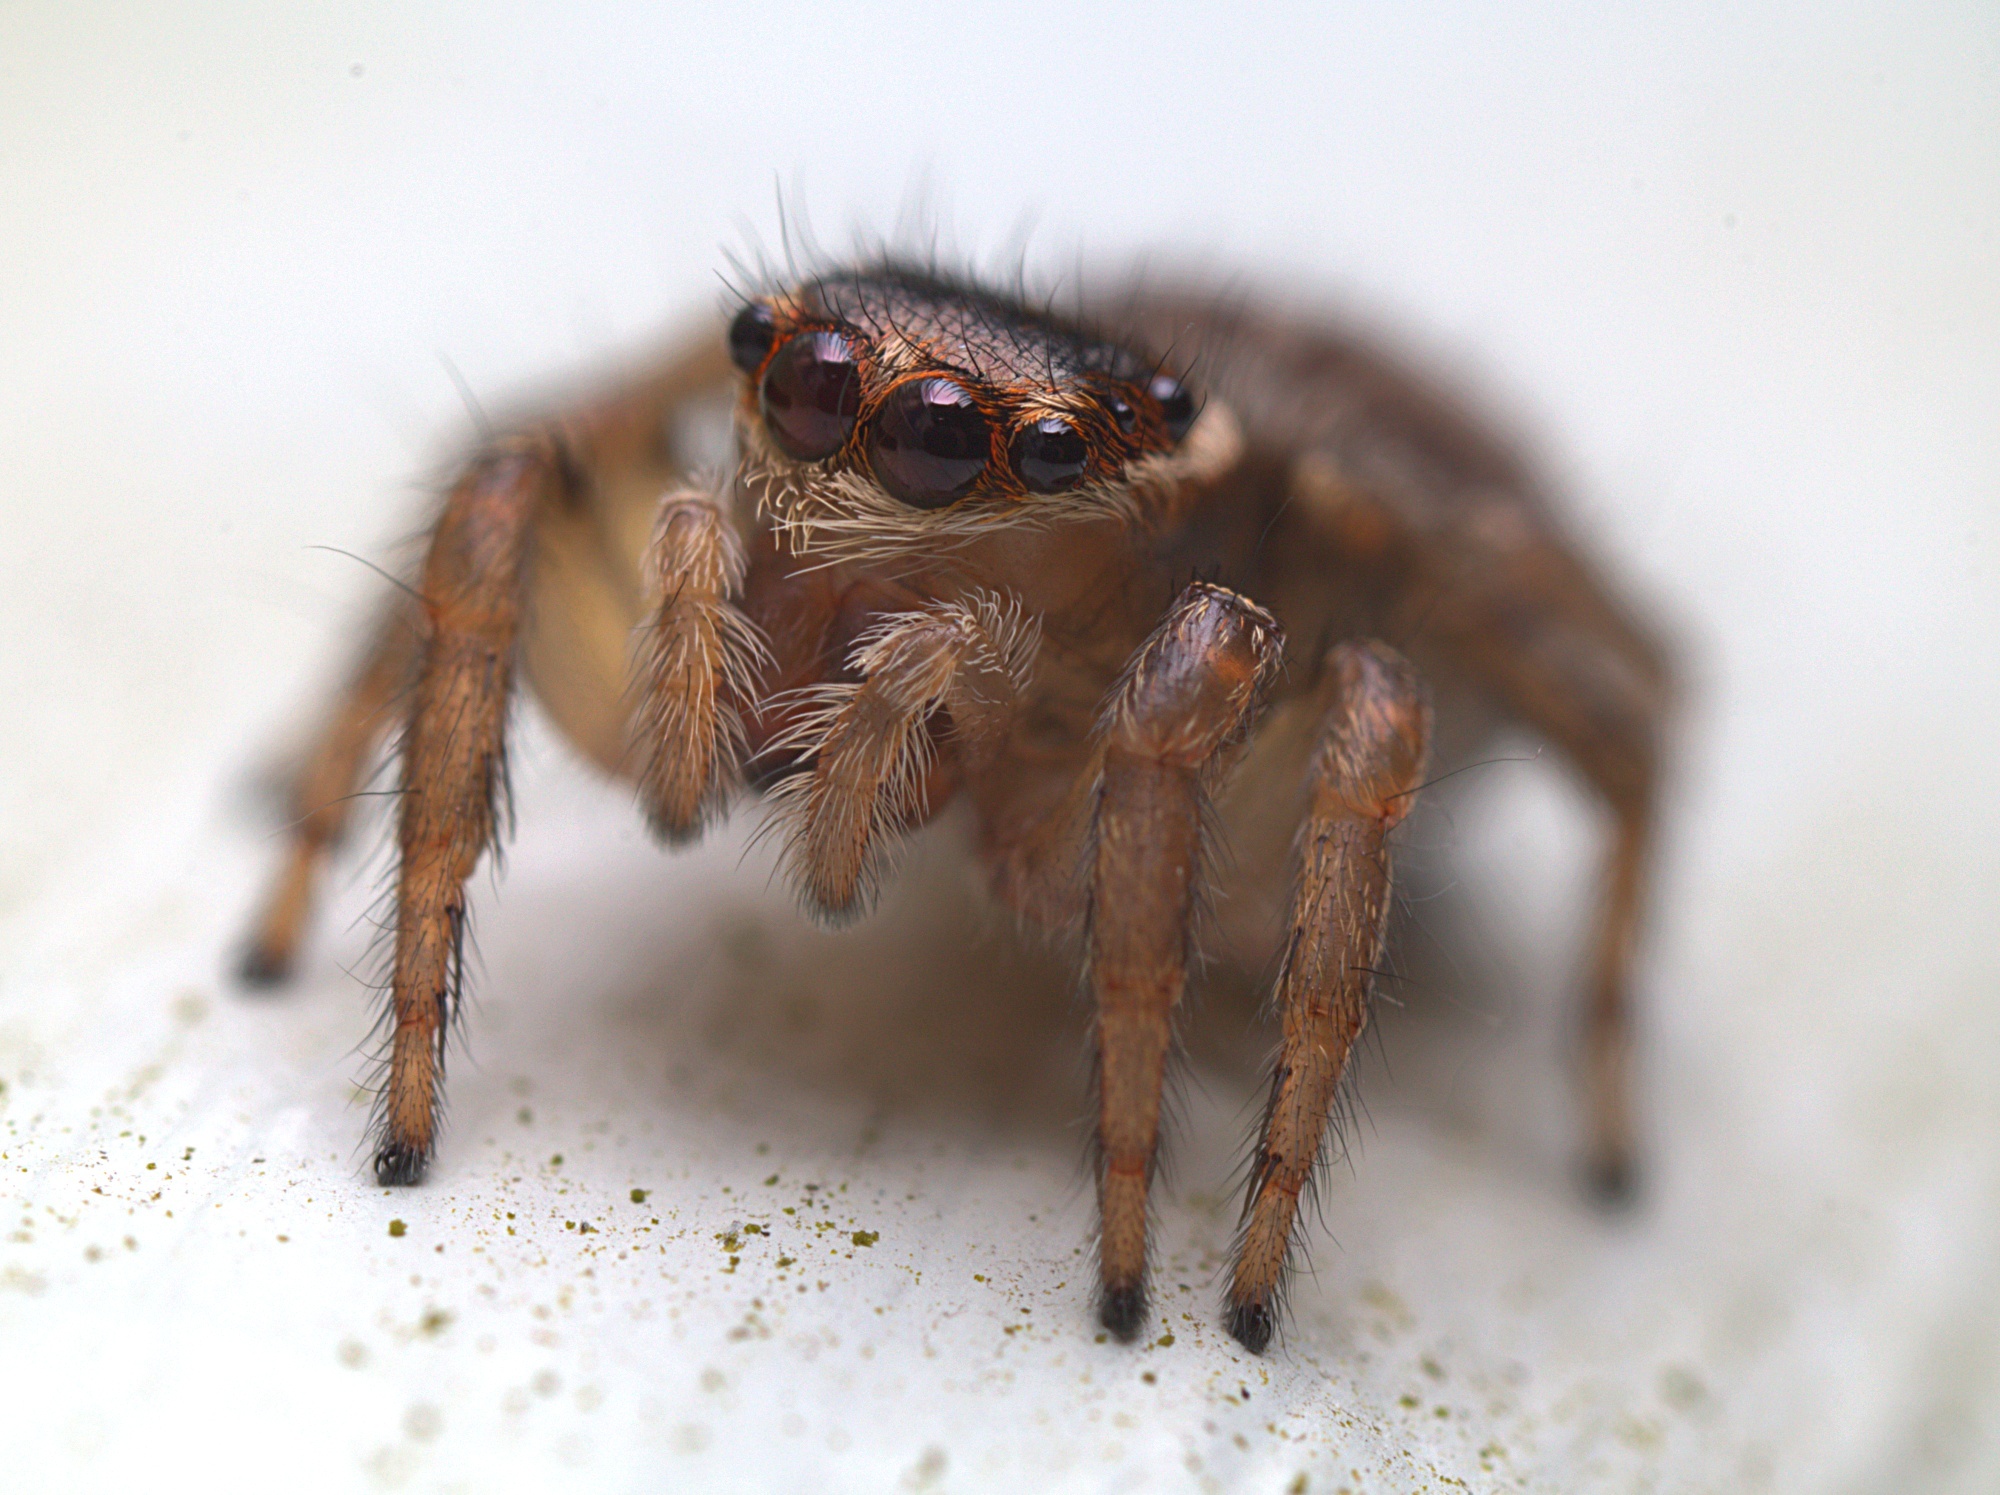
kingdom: Animalia
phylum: Arthropoda
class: Arachnida
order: Araneae
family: Salticidae
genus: Maratus
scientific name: Maratus griseus
